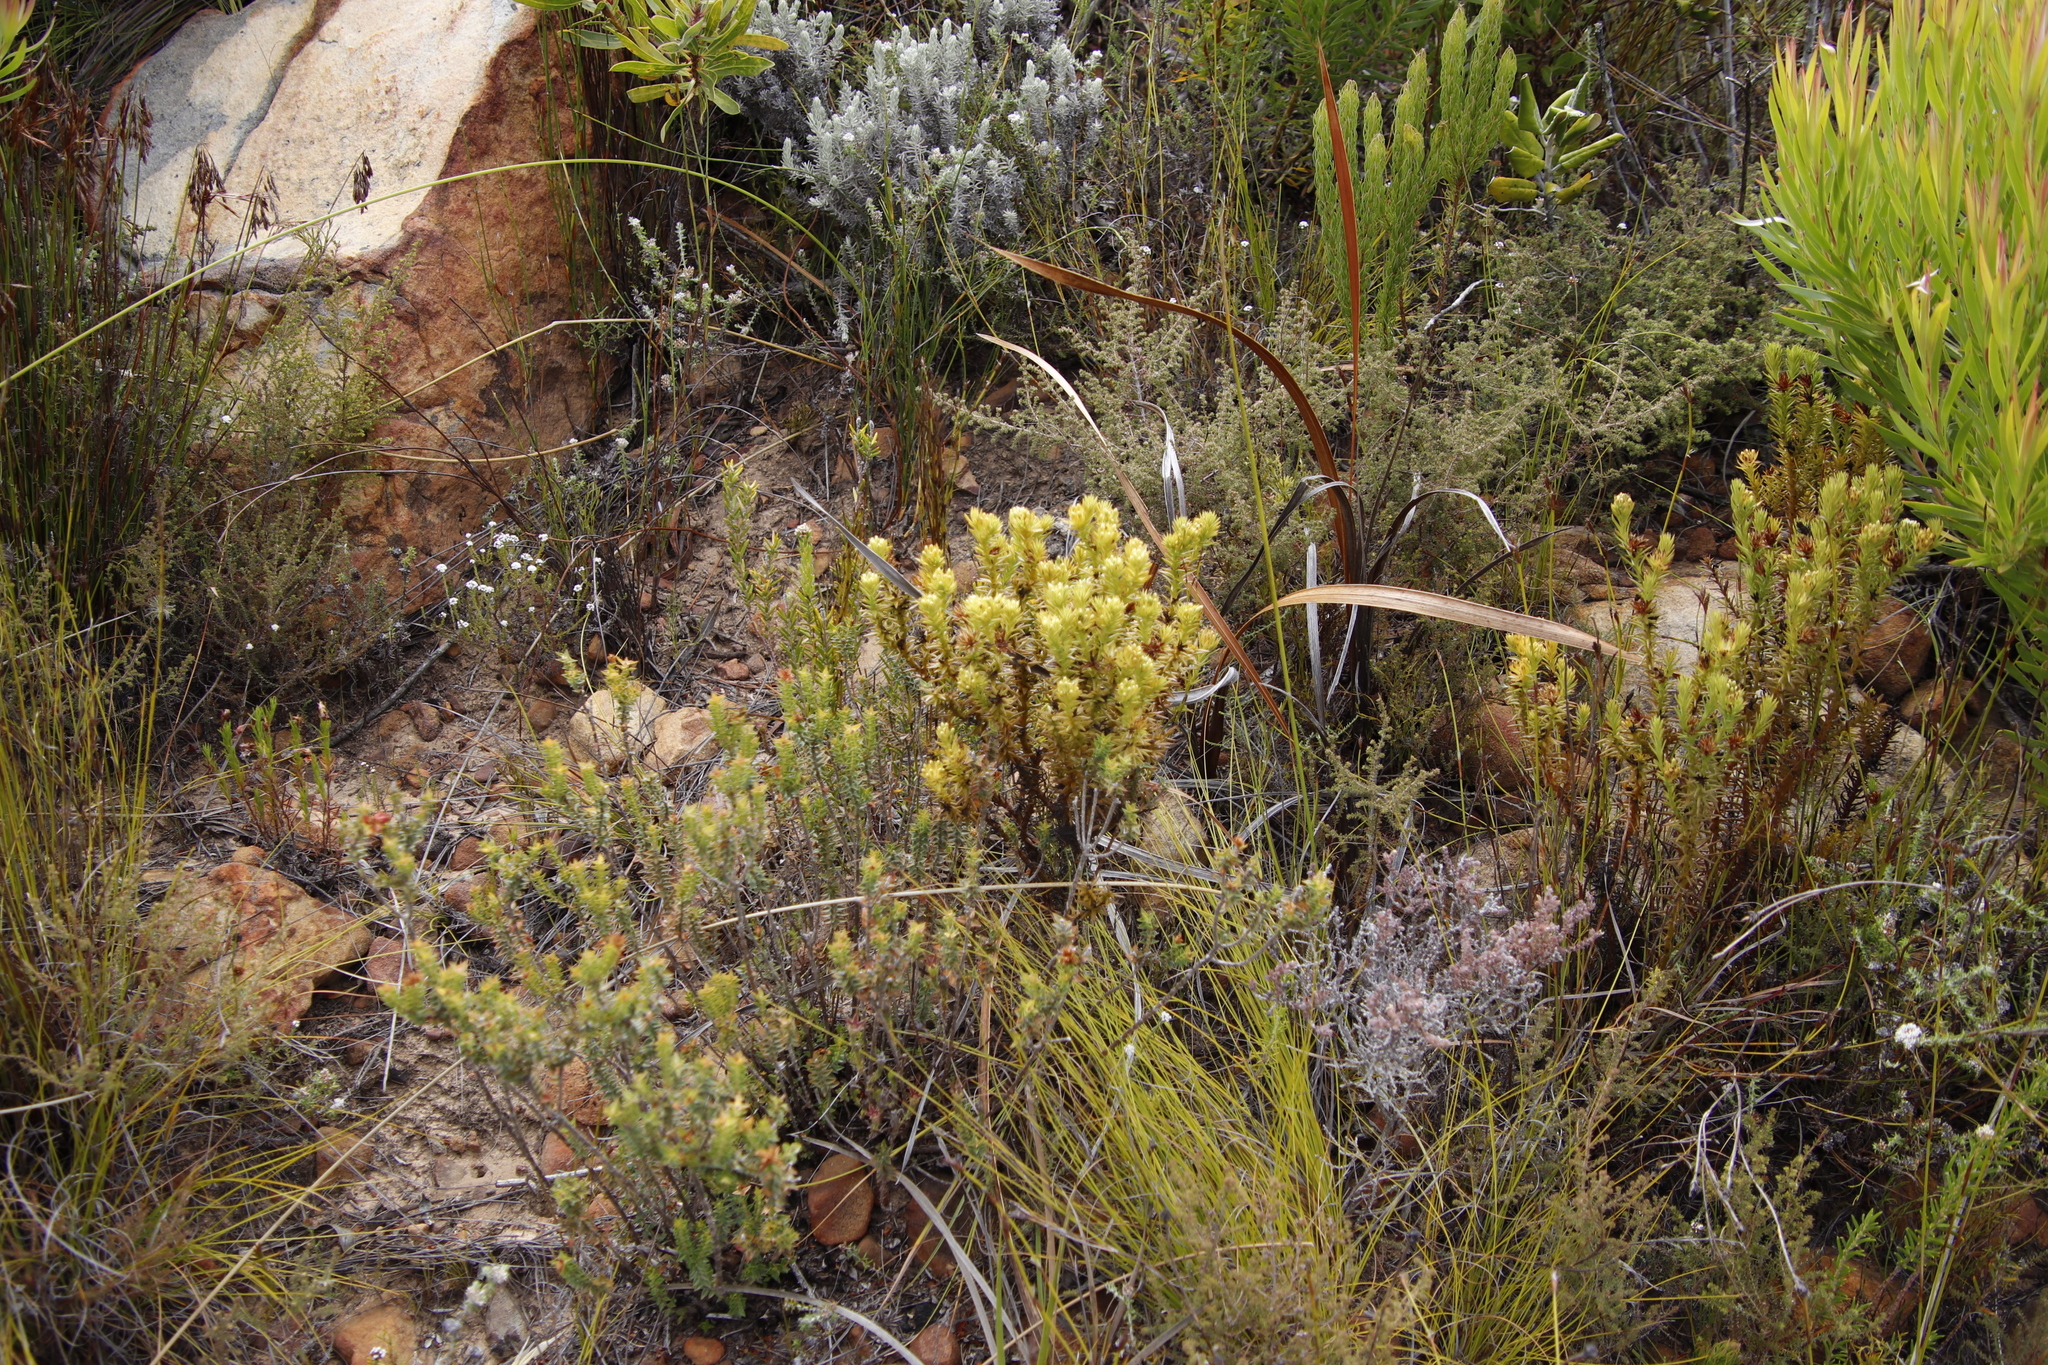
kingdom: Plantae
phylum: Tracheophyta
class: Magnoliopsida
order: Santalales
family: Thesiaceae
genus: Thesium
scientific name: Thesium viridifolium
